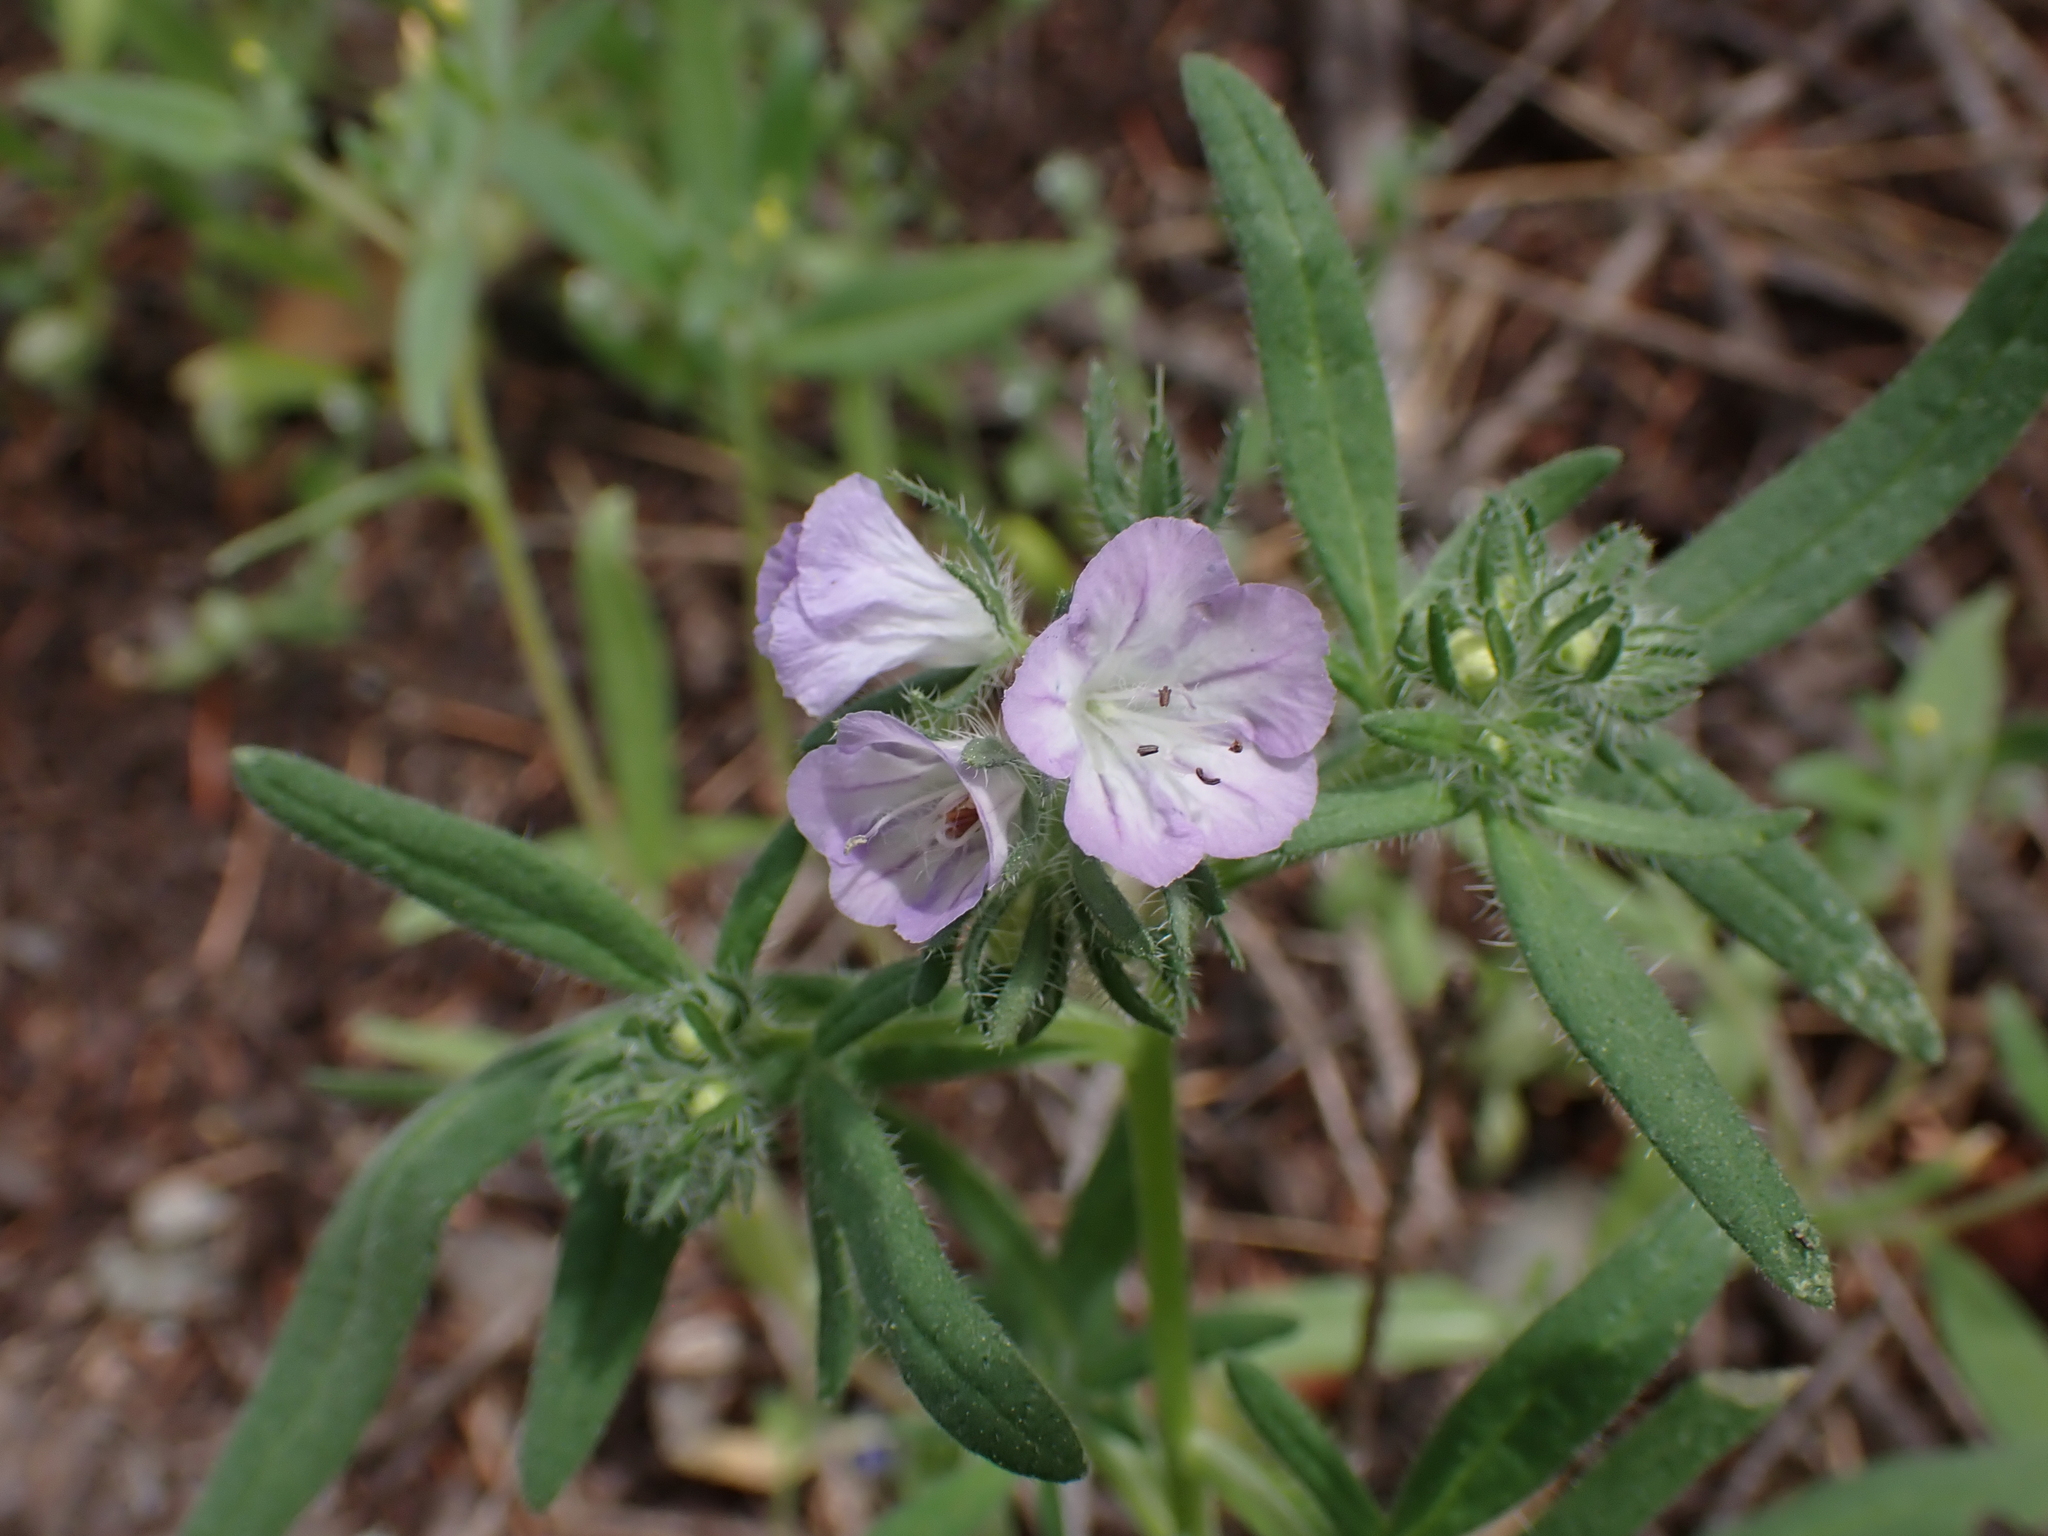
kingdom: Plantae
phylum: Tracheophyta
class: Magnoliopsida
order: Boraginales
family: Hydrophyllaceae
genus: Phacelia
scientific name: Phacelia linearis
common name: Linear-leaved phacelia
